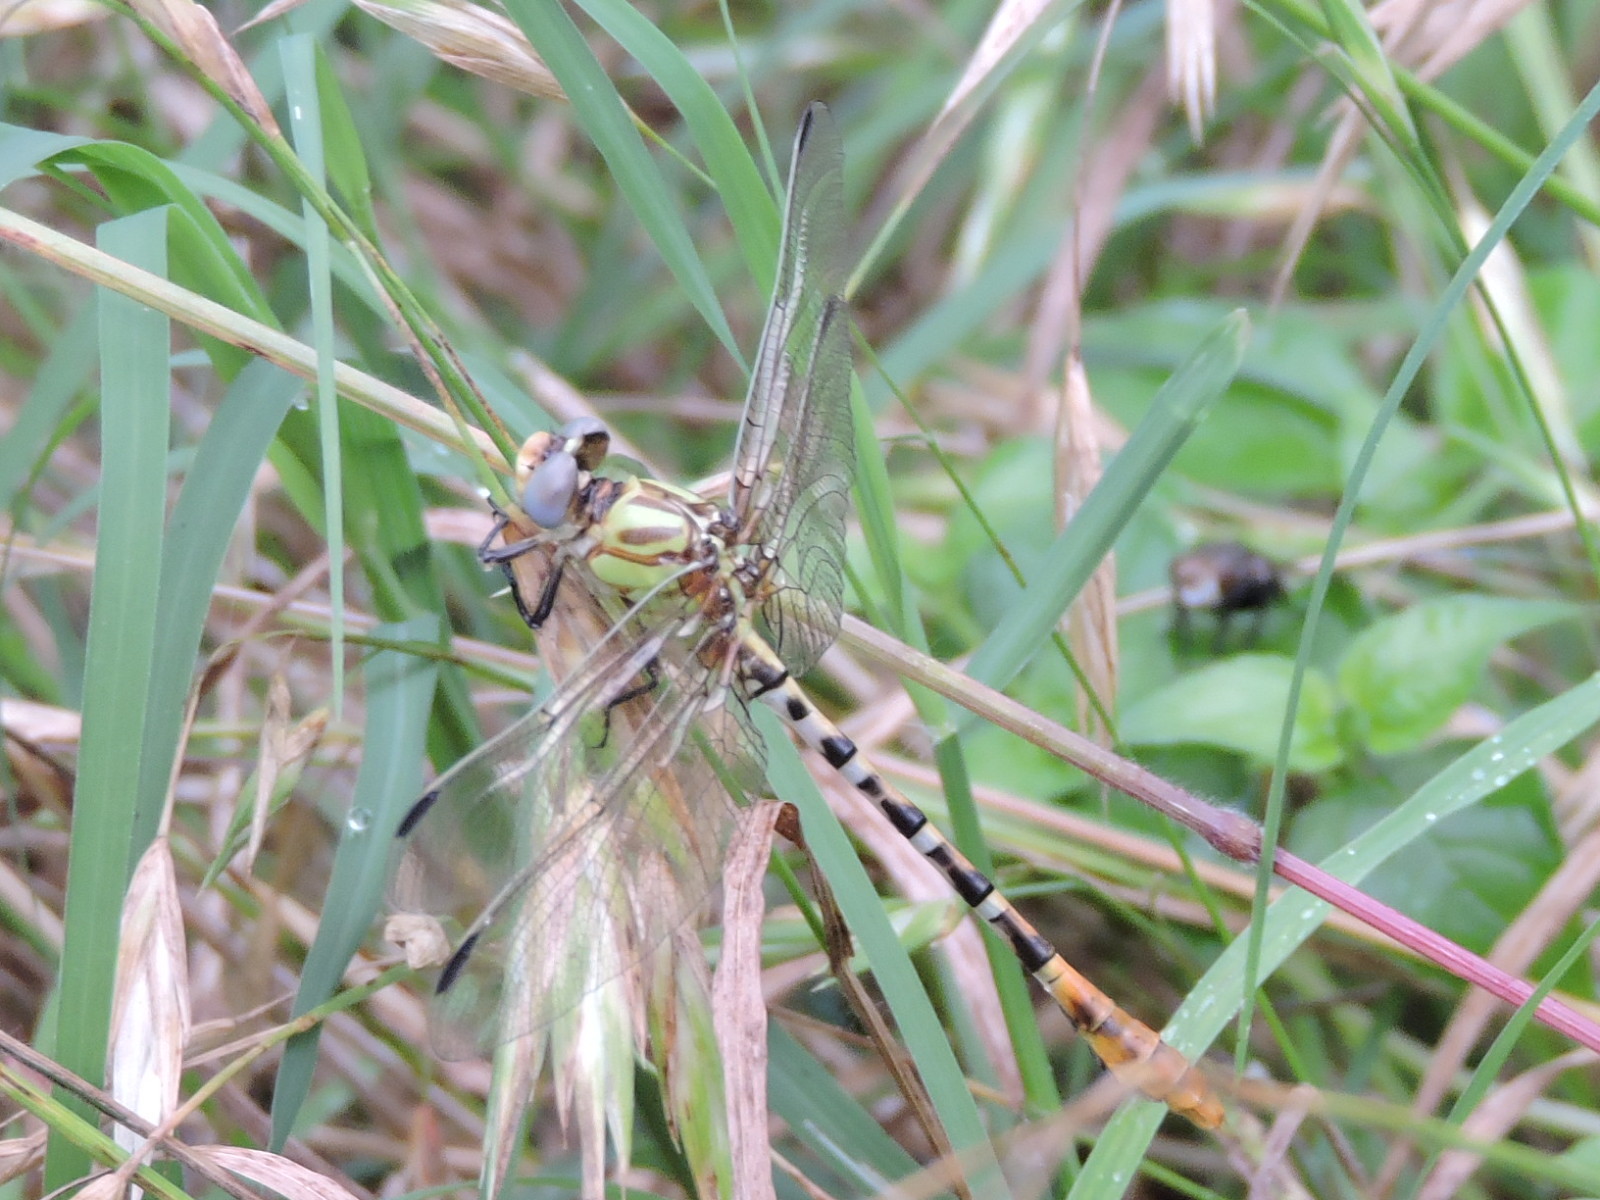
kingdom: Animalia
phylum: Arthropoda
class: Insecta
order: Odonata
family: Gomphidae
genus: Erpetogomphus
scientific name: Erpetogomphus designatus
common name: Eastern ringtail
